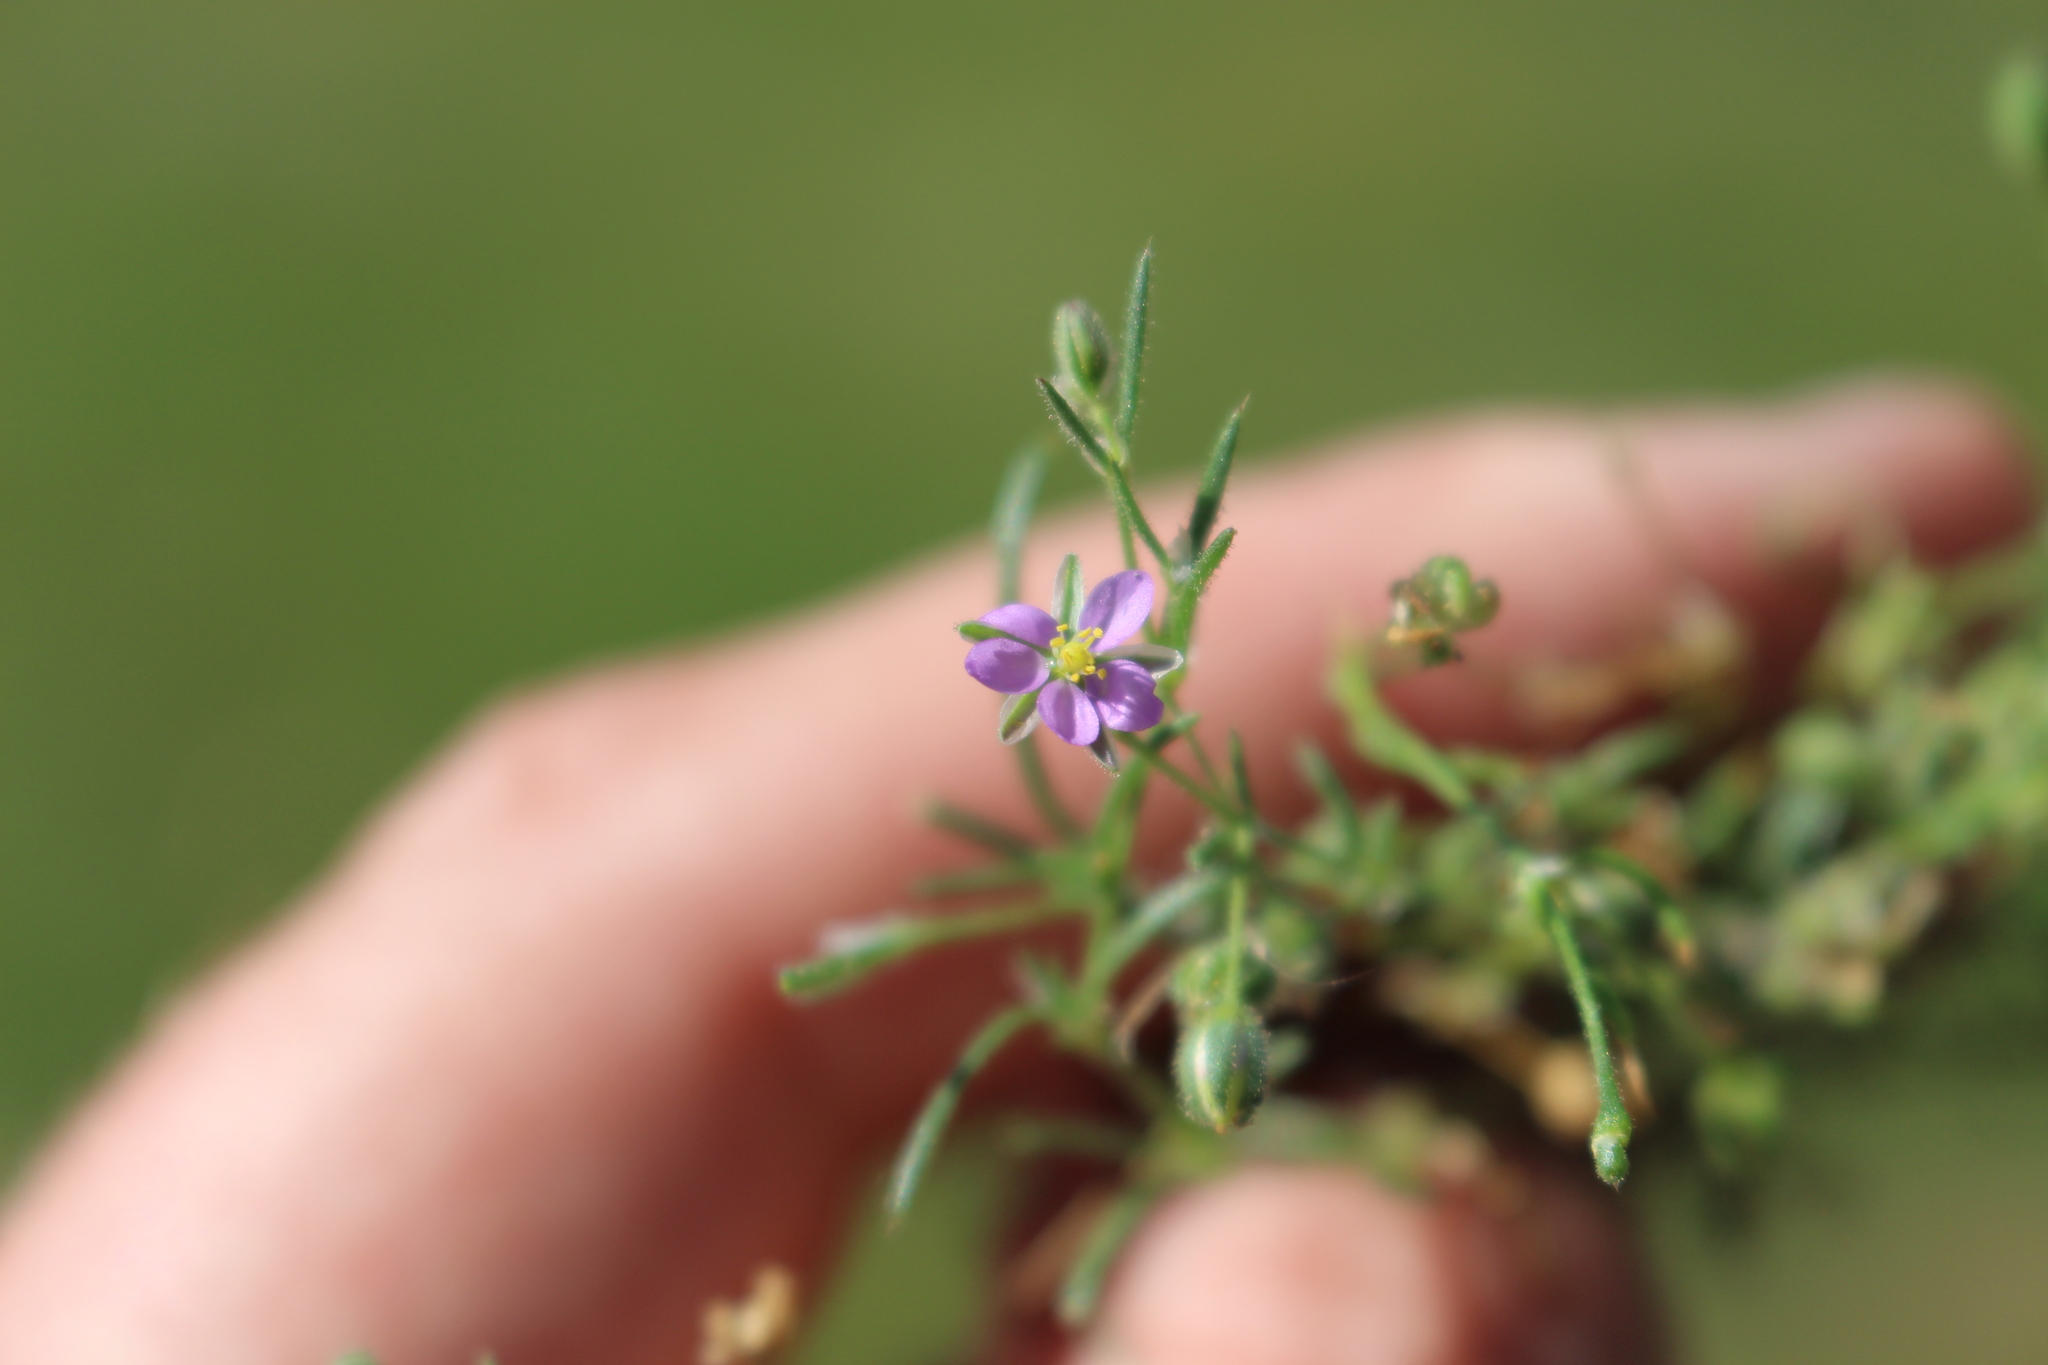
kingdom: Plantae
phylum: Tracheophyta
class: Magnoliopsida
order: Caryophyllales
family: Caryophyllaceae
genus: Spergularia
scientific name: Spergularia rubra
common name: Red sand-spurrey
